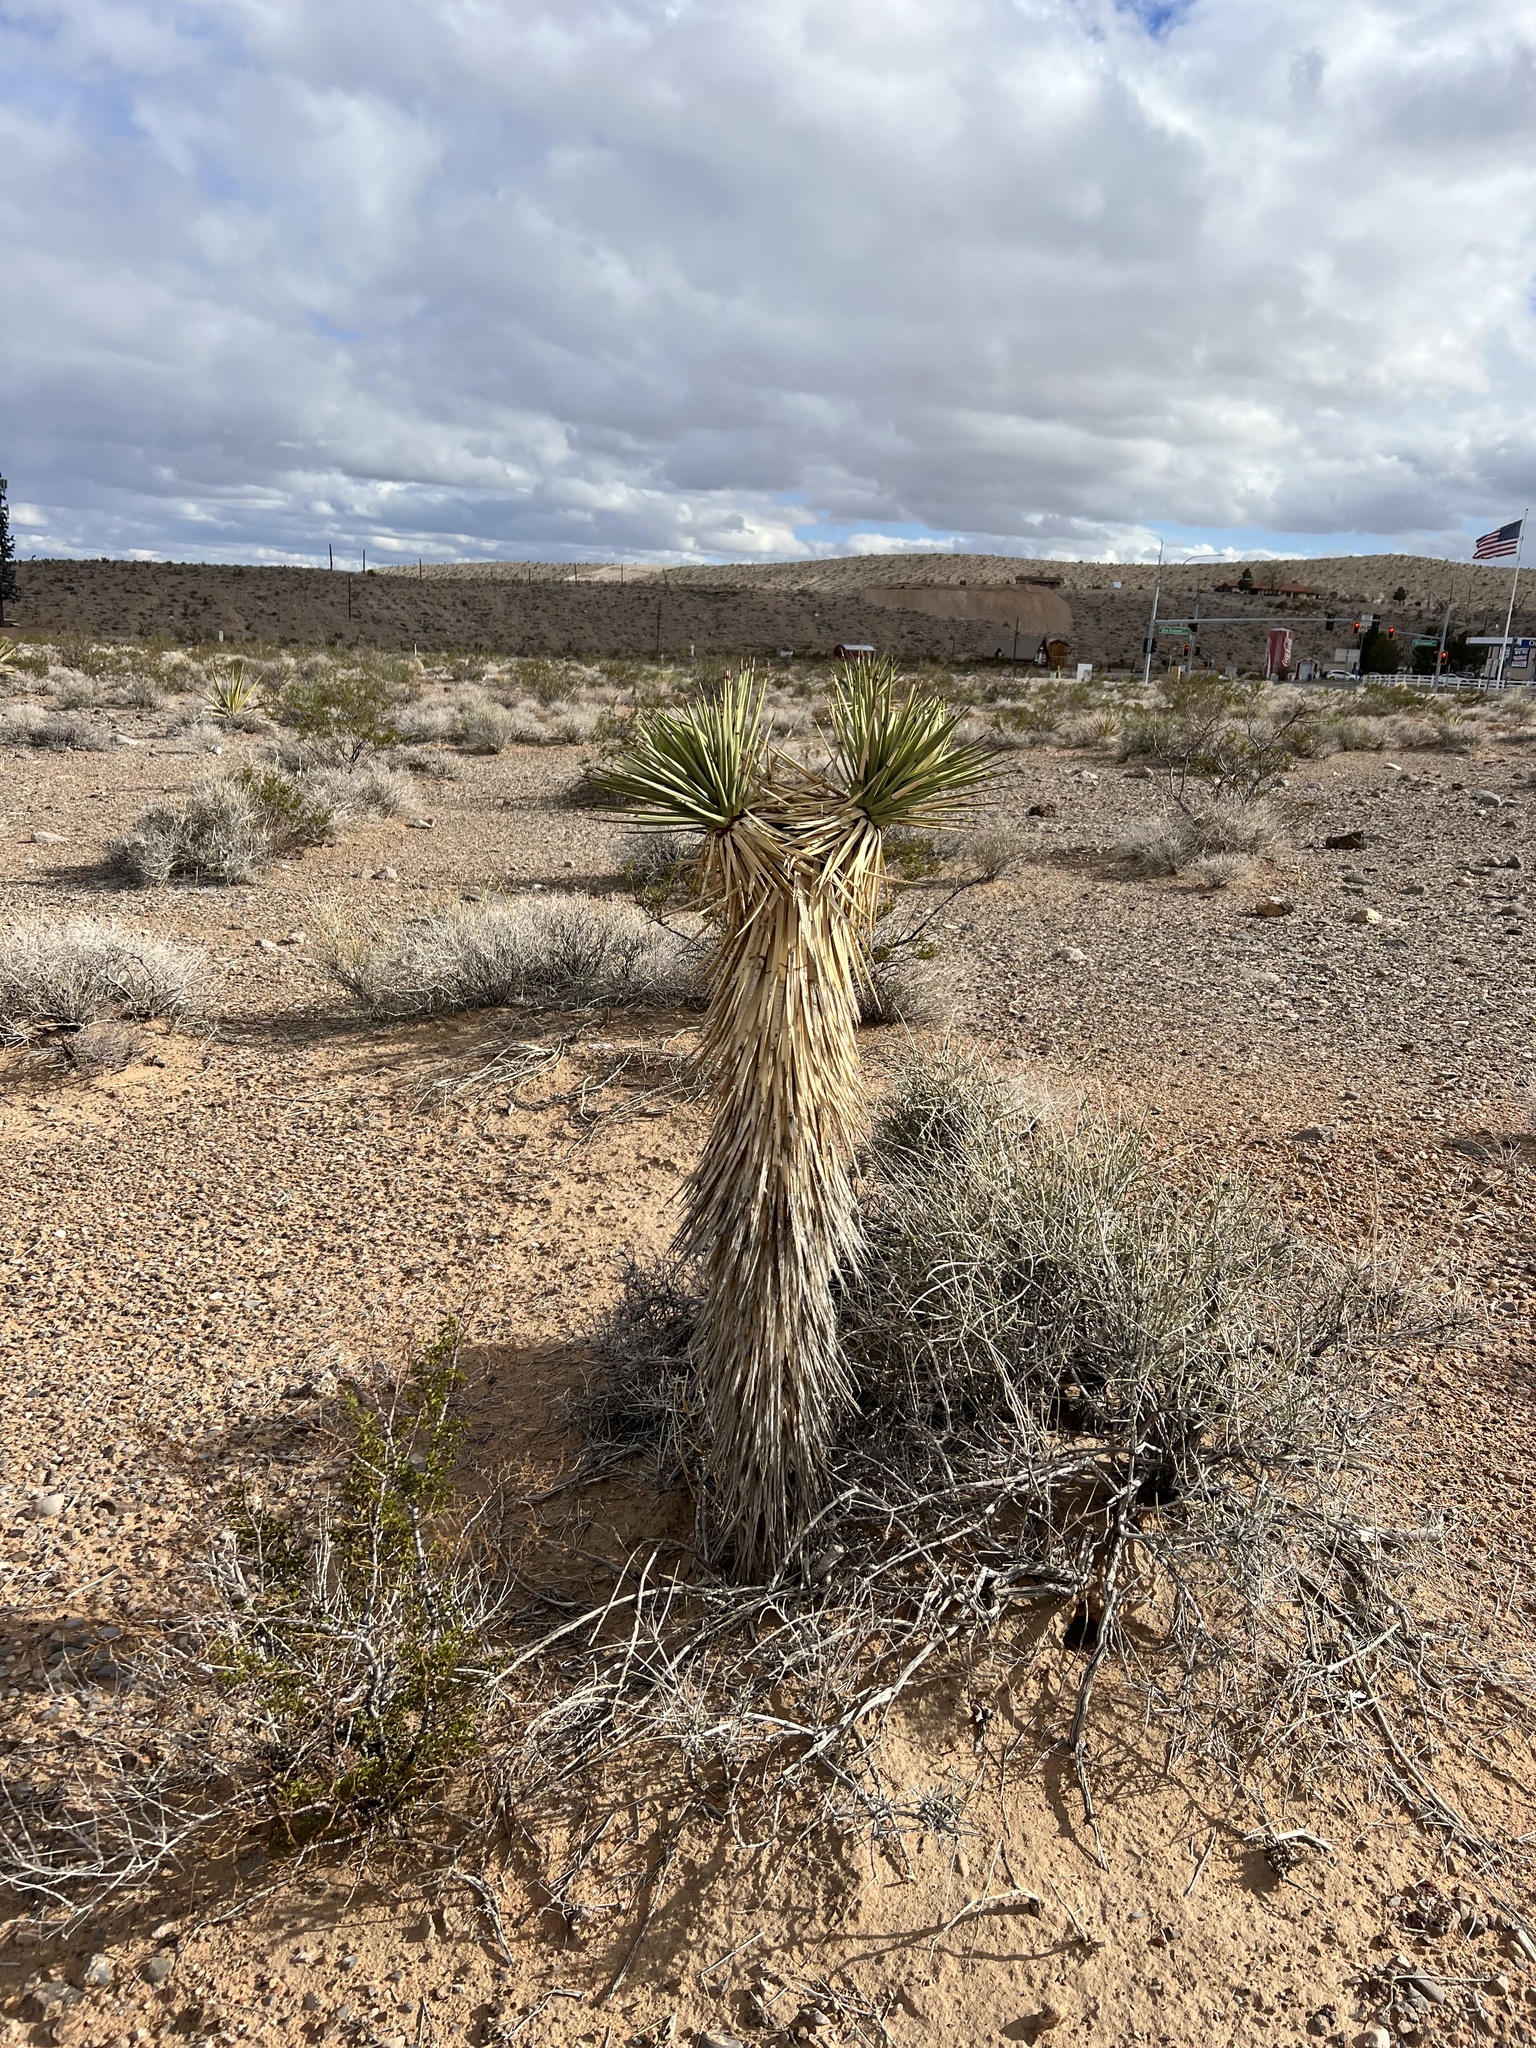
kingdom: Plantae
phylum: Tracheophyta
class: Liliopsida
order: Asparagales
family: Asparagaceae
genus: Yucca
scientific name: Yucca brevifolia
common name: Joshua tree
